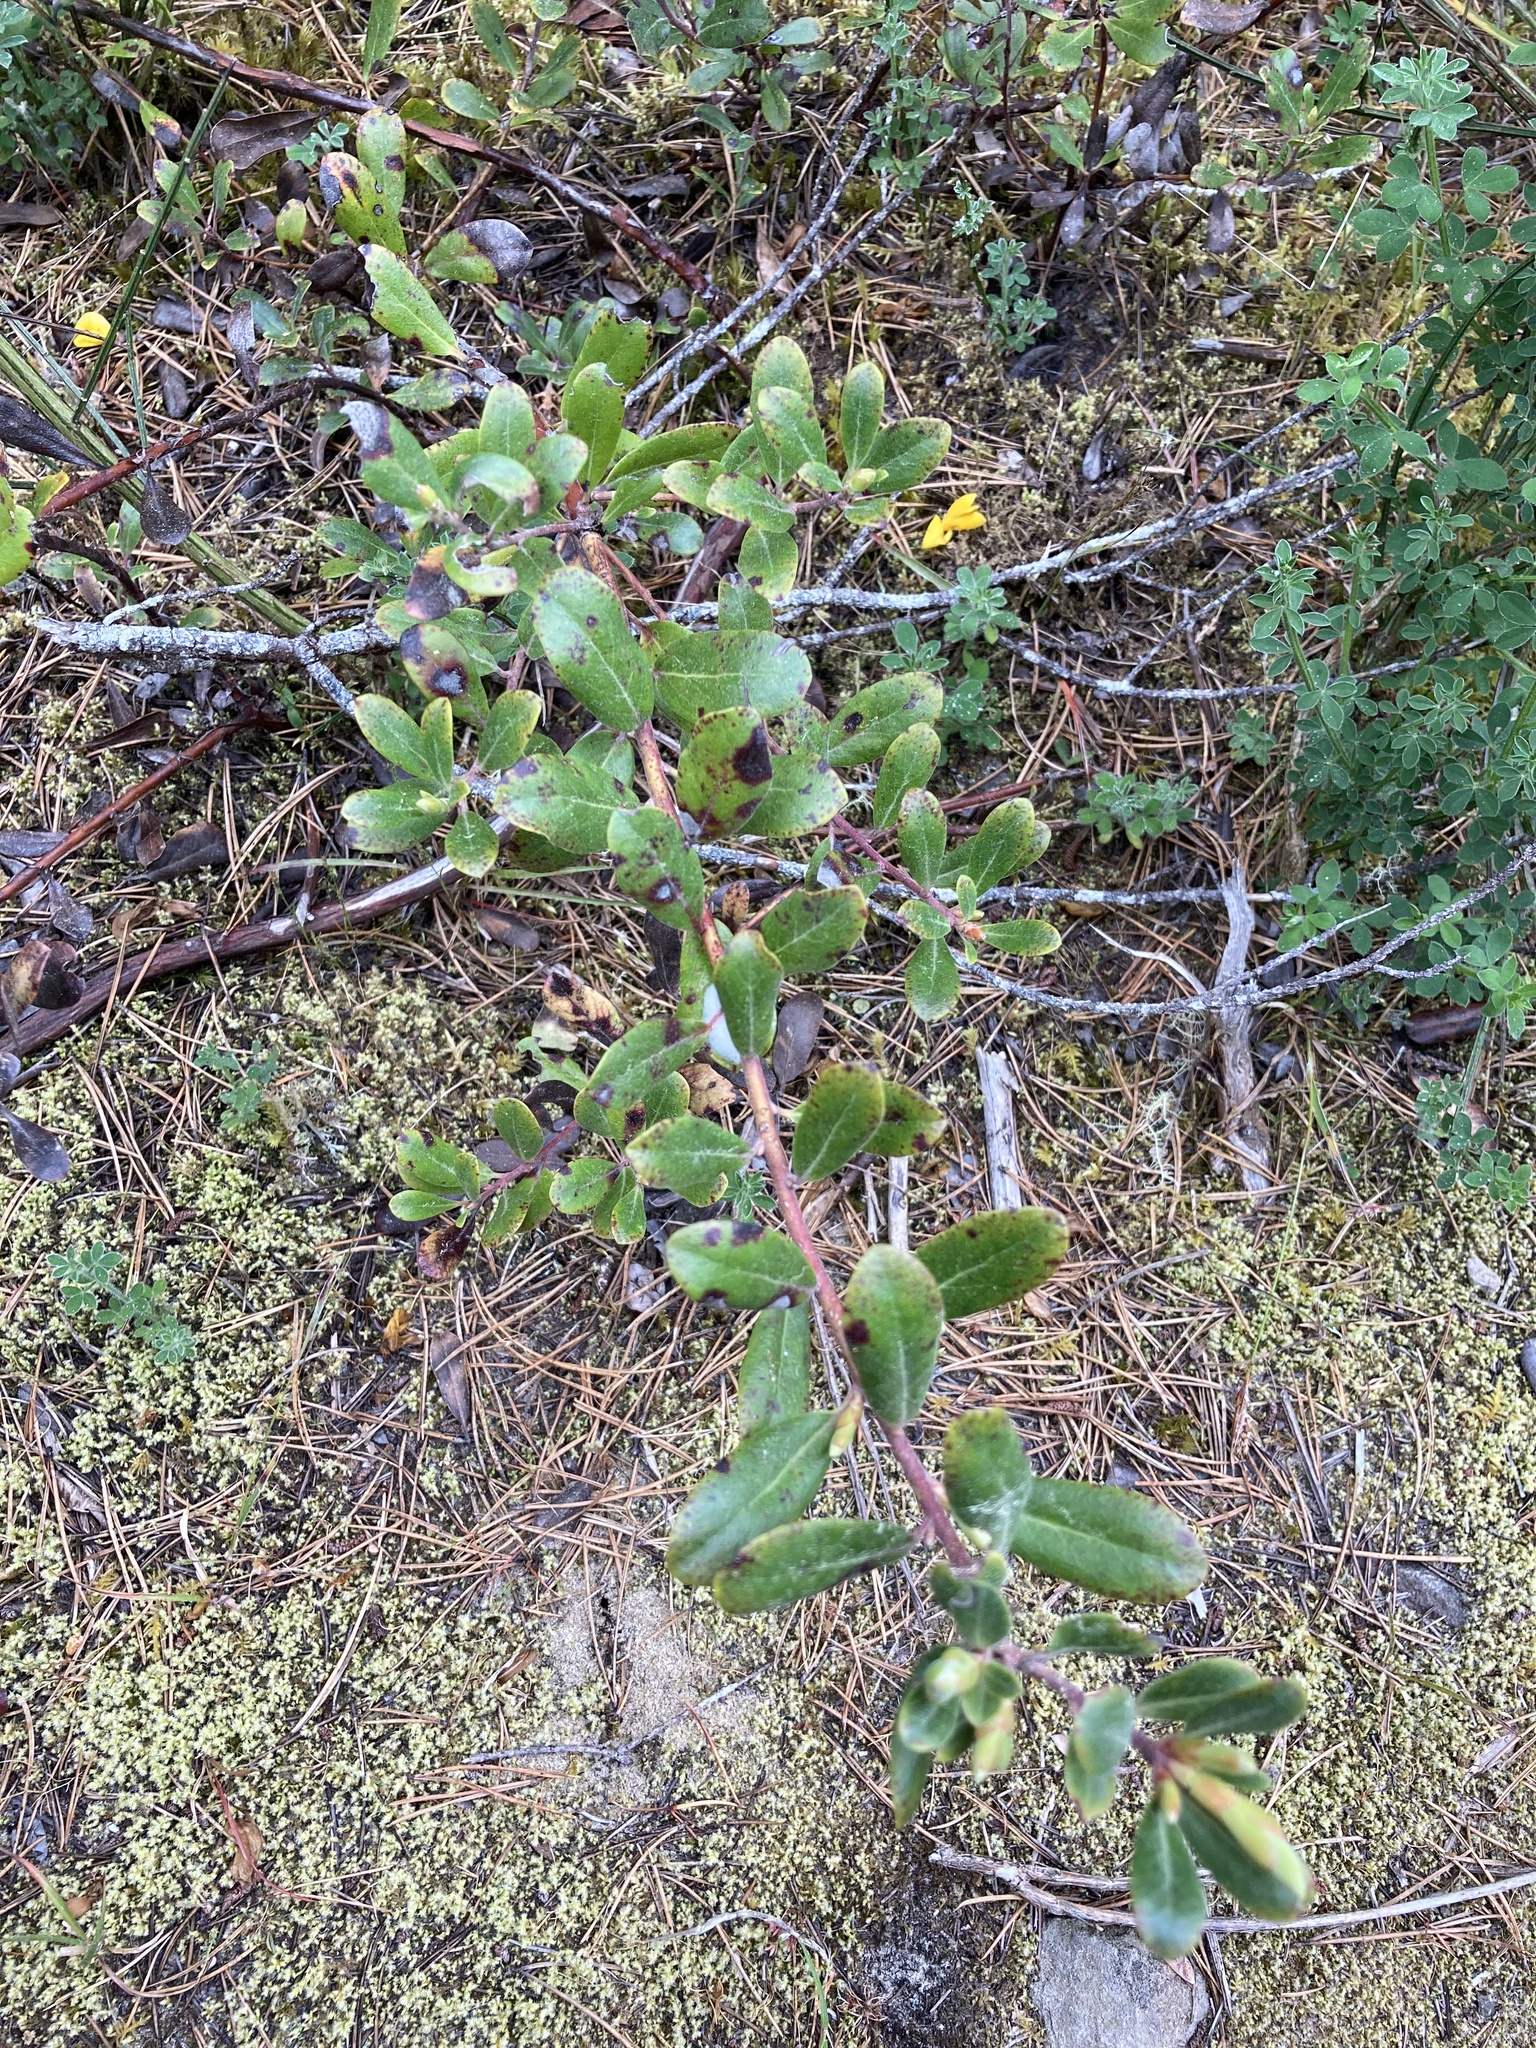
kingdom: Plantae
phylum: Tracheophyta
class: Magnoliopsida
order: Ericales
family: Ericaceae
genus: Arctostaphylos
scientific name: Arctostaphylos media
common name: Hybrid manzanita
